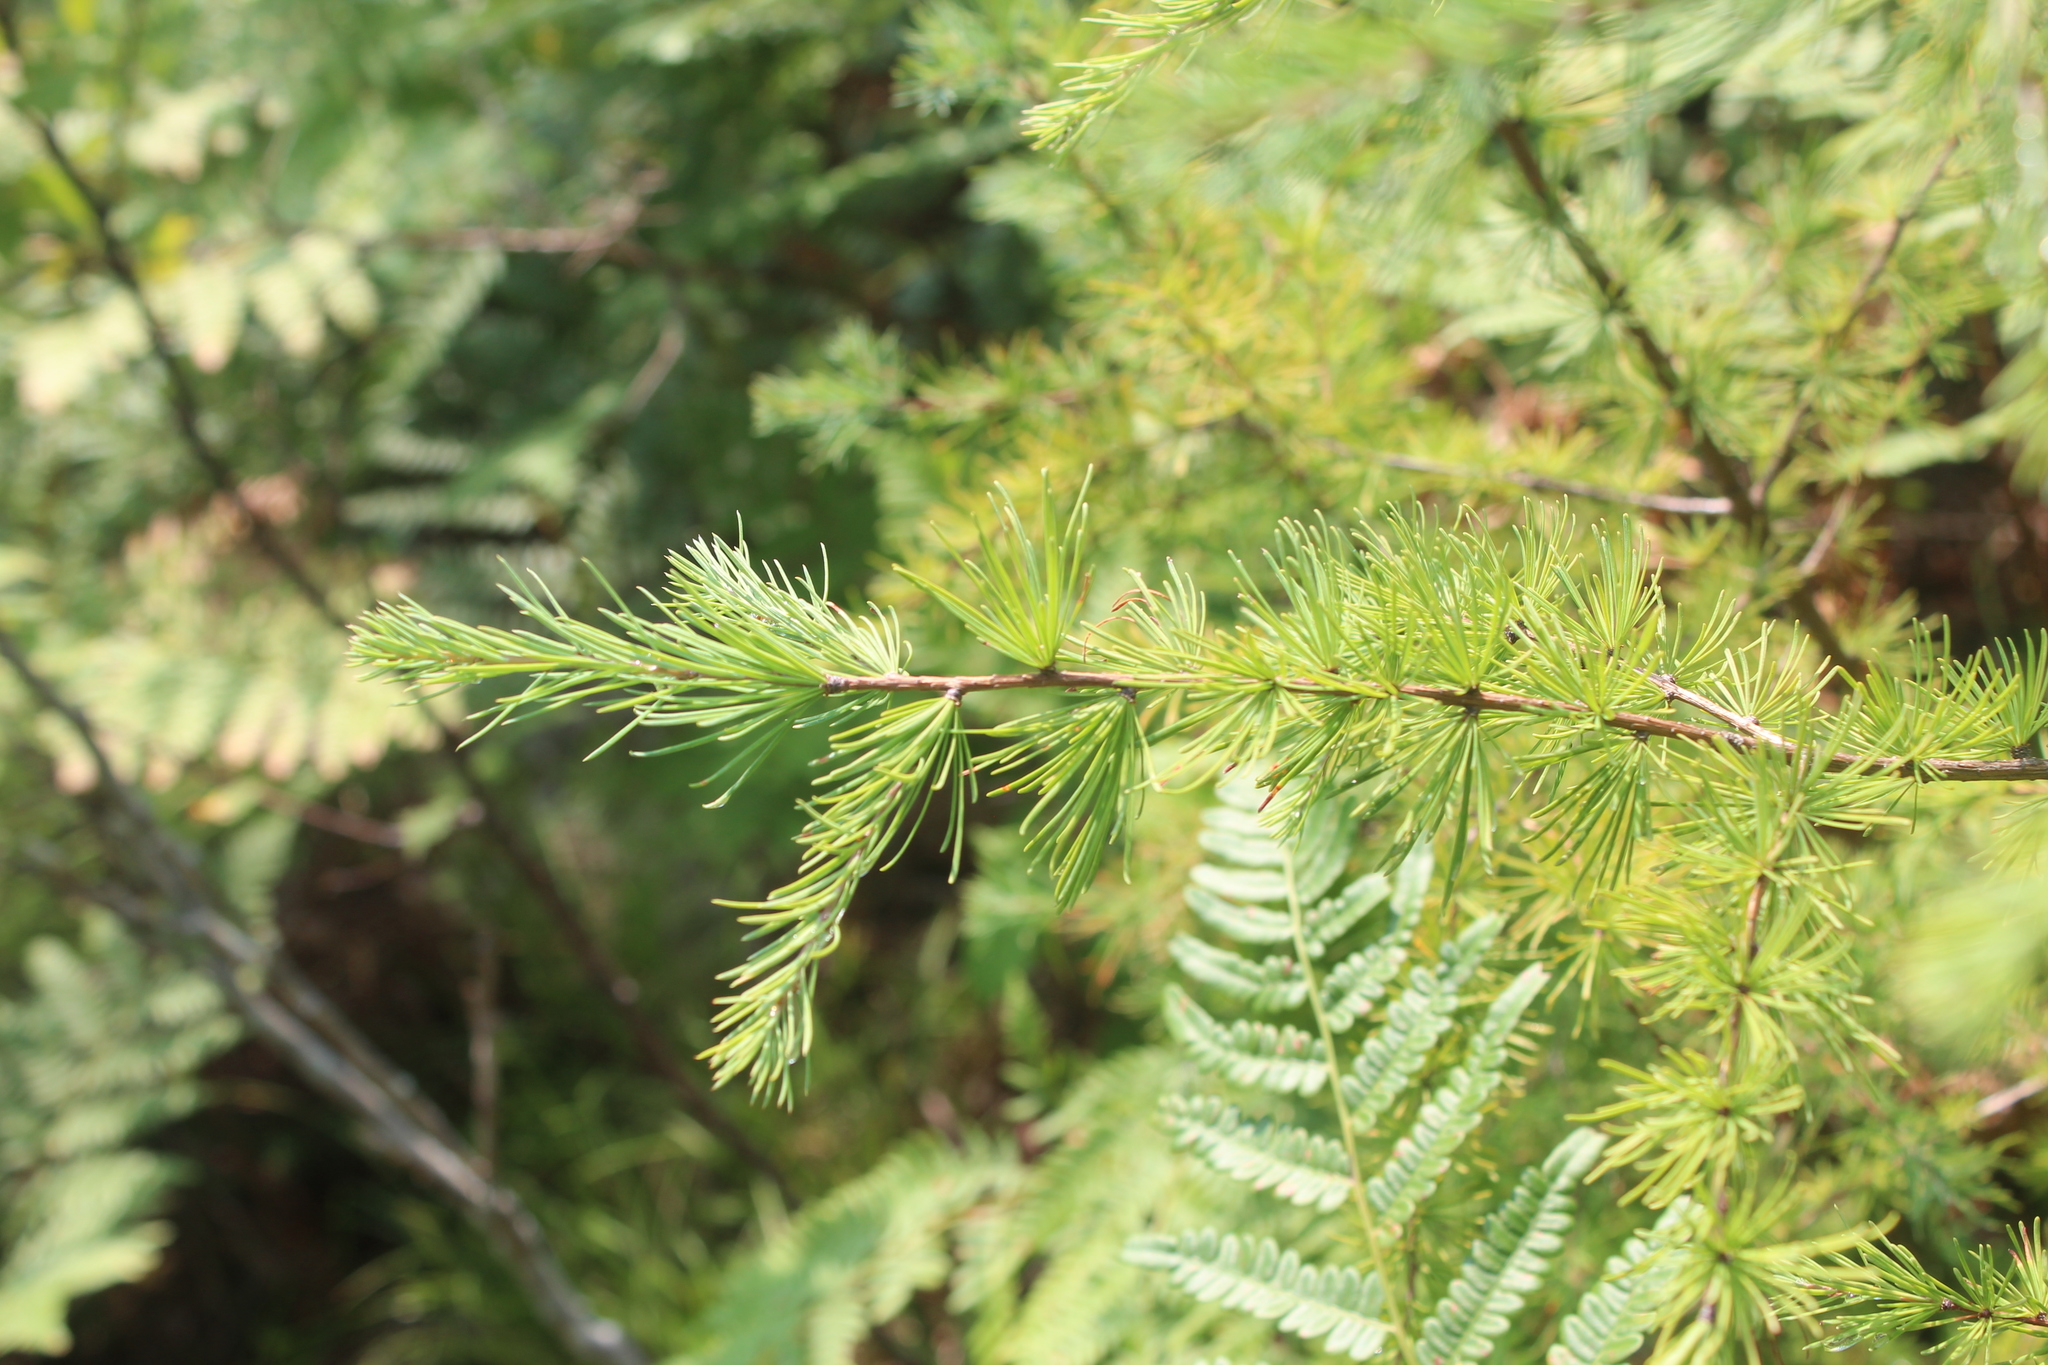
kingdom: Plantae
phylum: Tracheophyta
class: Pinopsida
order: Pinales
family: Pinaceae
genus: Larix
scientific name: Larix laricina
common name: American larch
